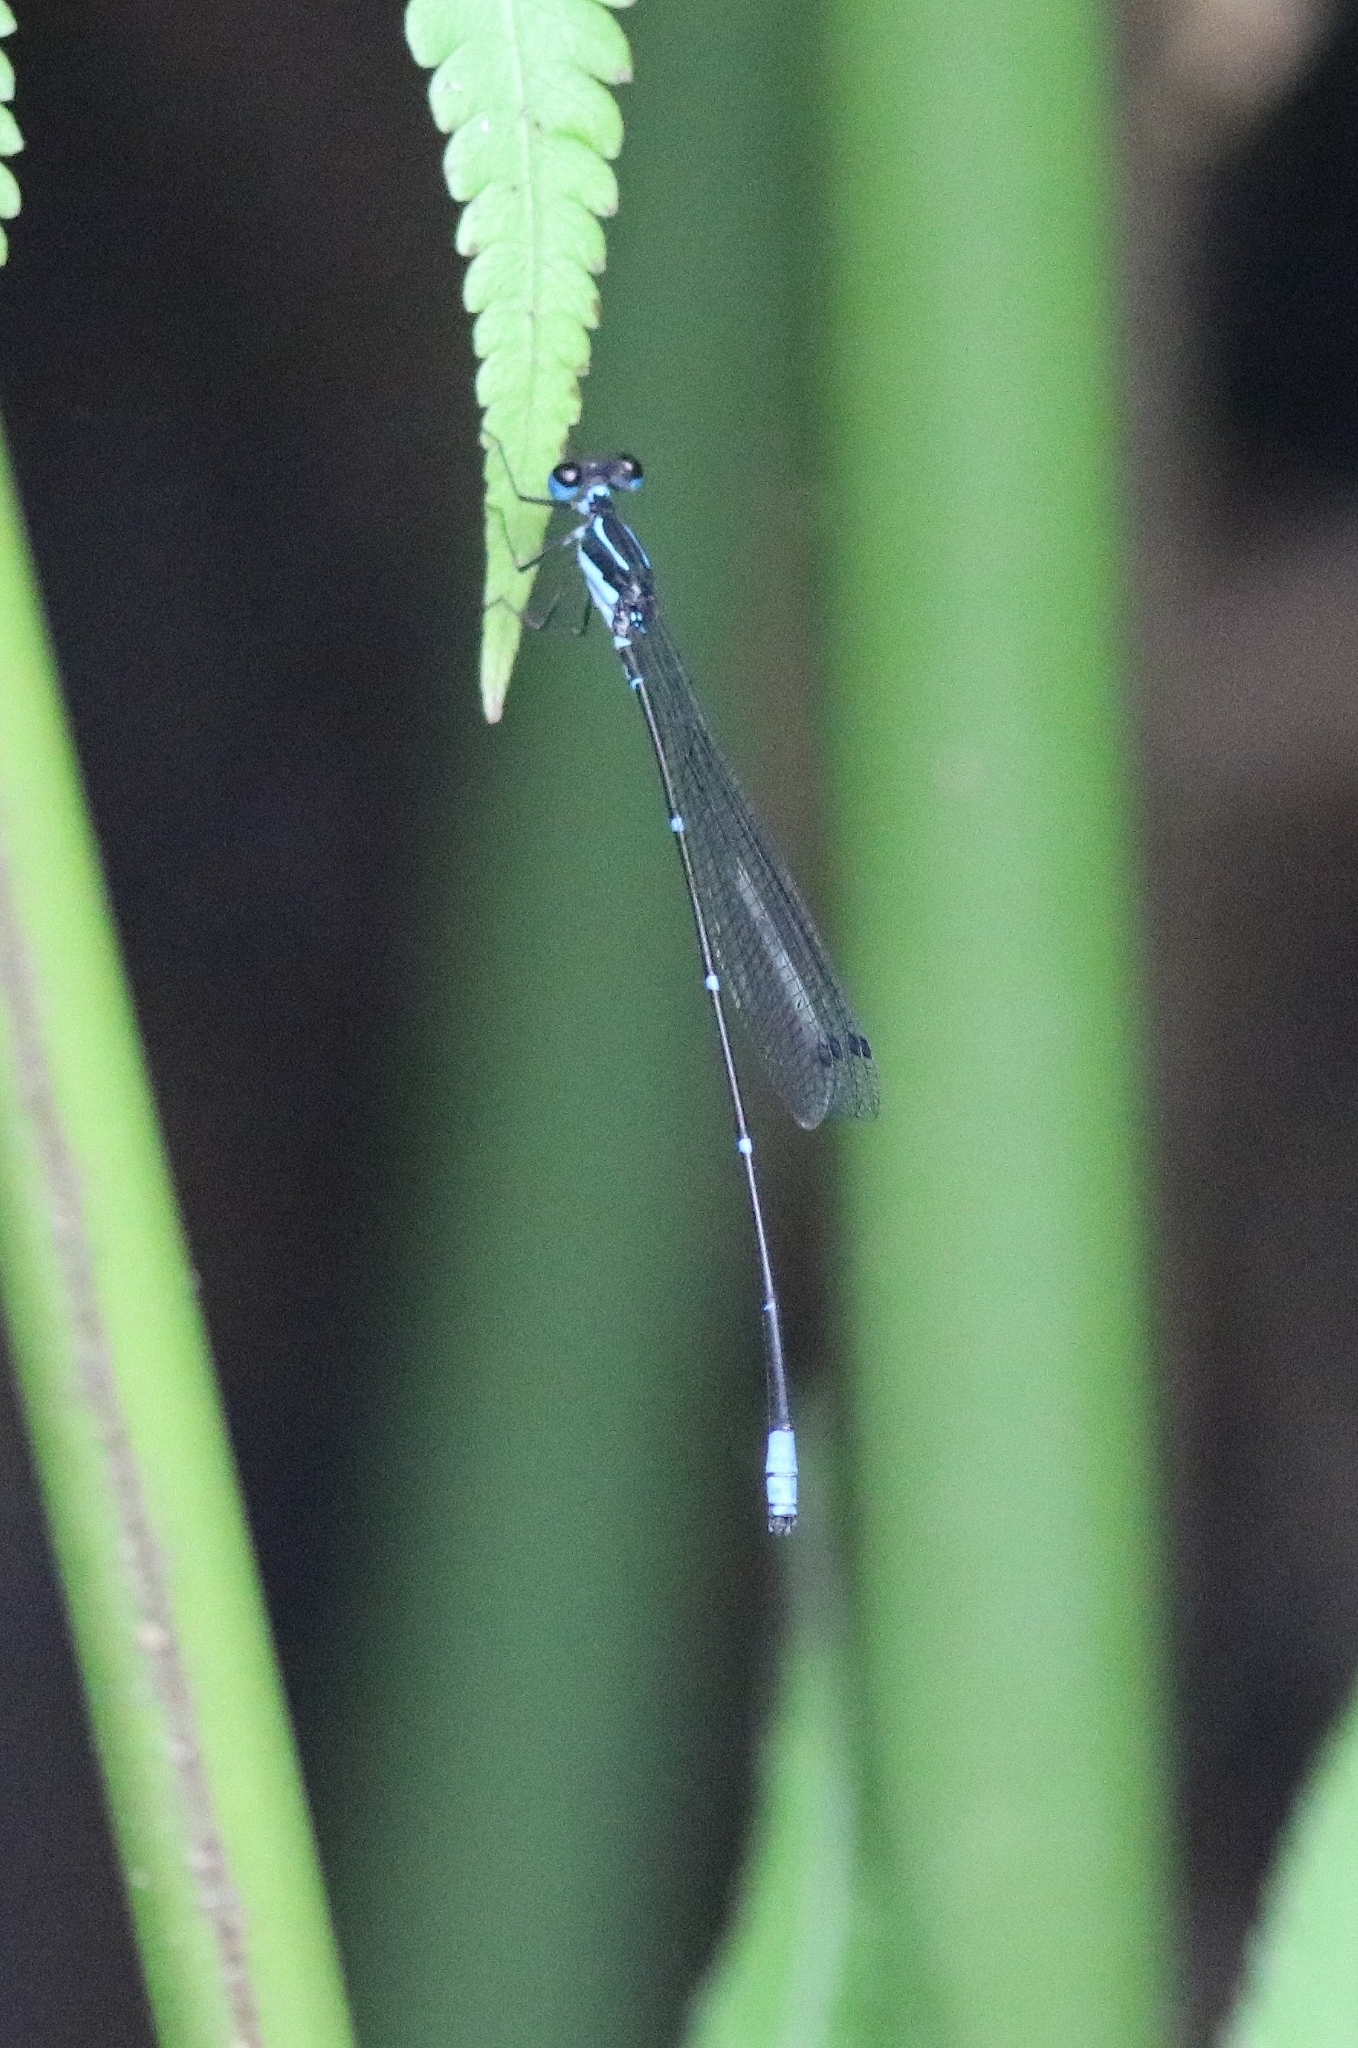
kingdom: Animalia
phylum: Arthropoda
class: Insecta
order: Odonata
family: Platycnemididae
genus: Caconeura
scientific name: Caconeura ramburi
